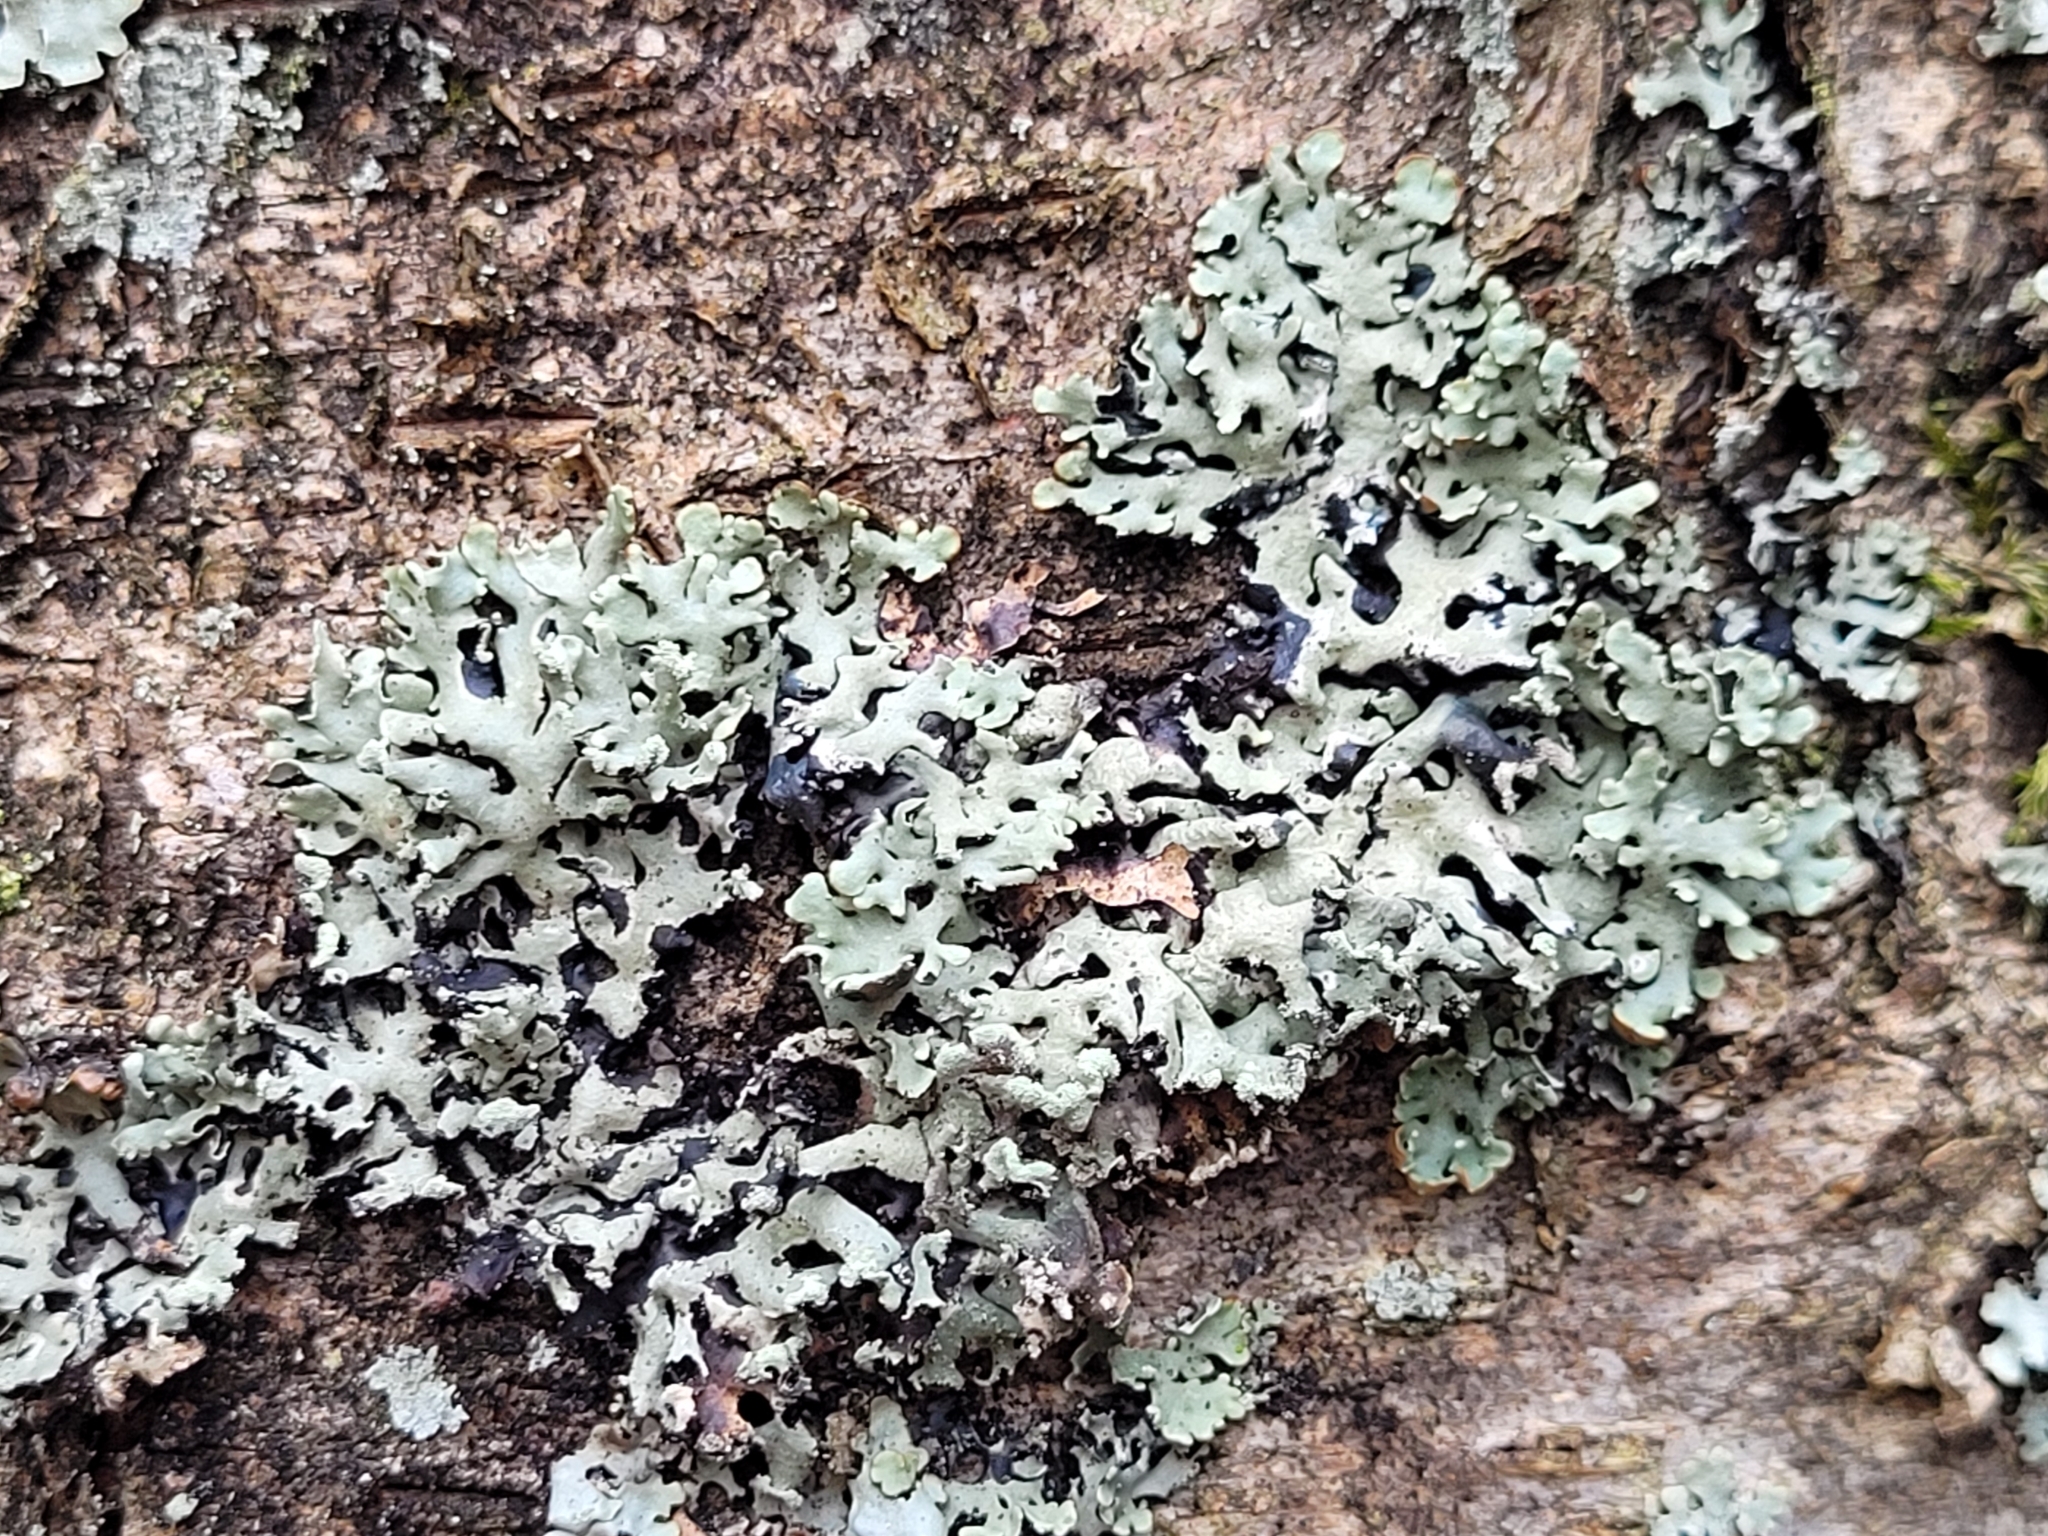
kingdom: Fungi
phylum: Ascomycota
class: Lecanoromycetes
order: Lecanorales
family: Parmeliaceae
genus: Hypogymnia
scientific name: Hypogymnia physodes
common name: Dark crottle
